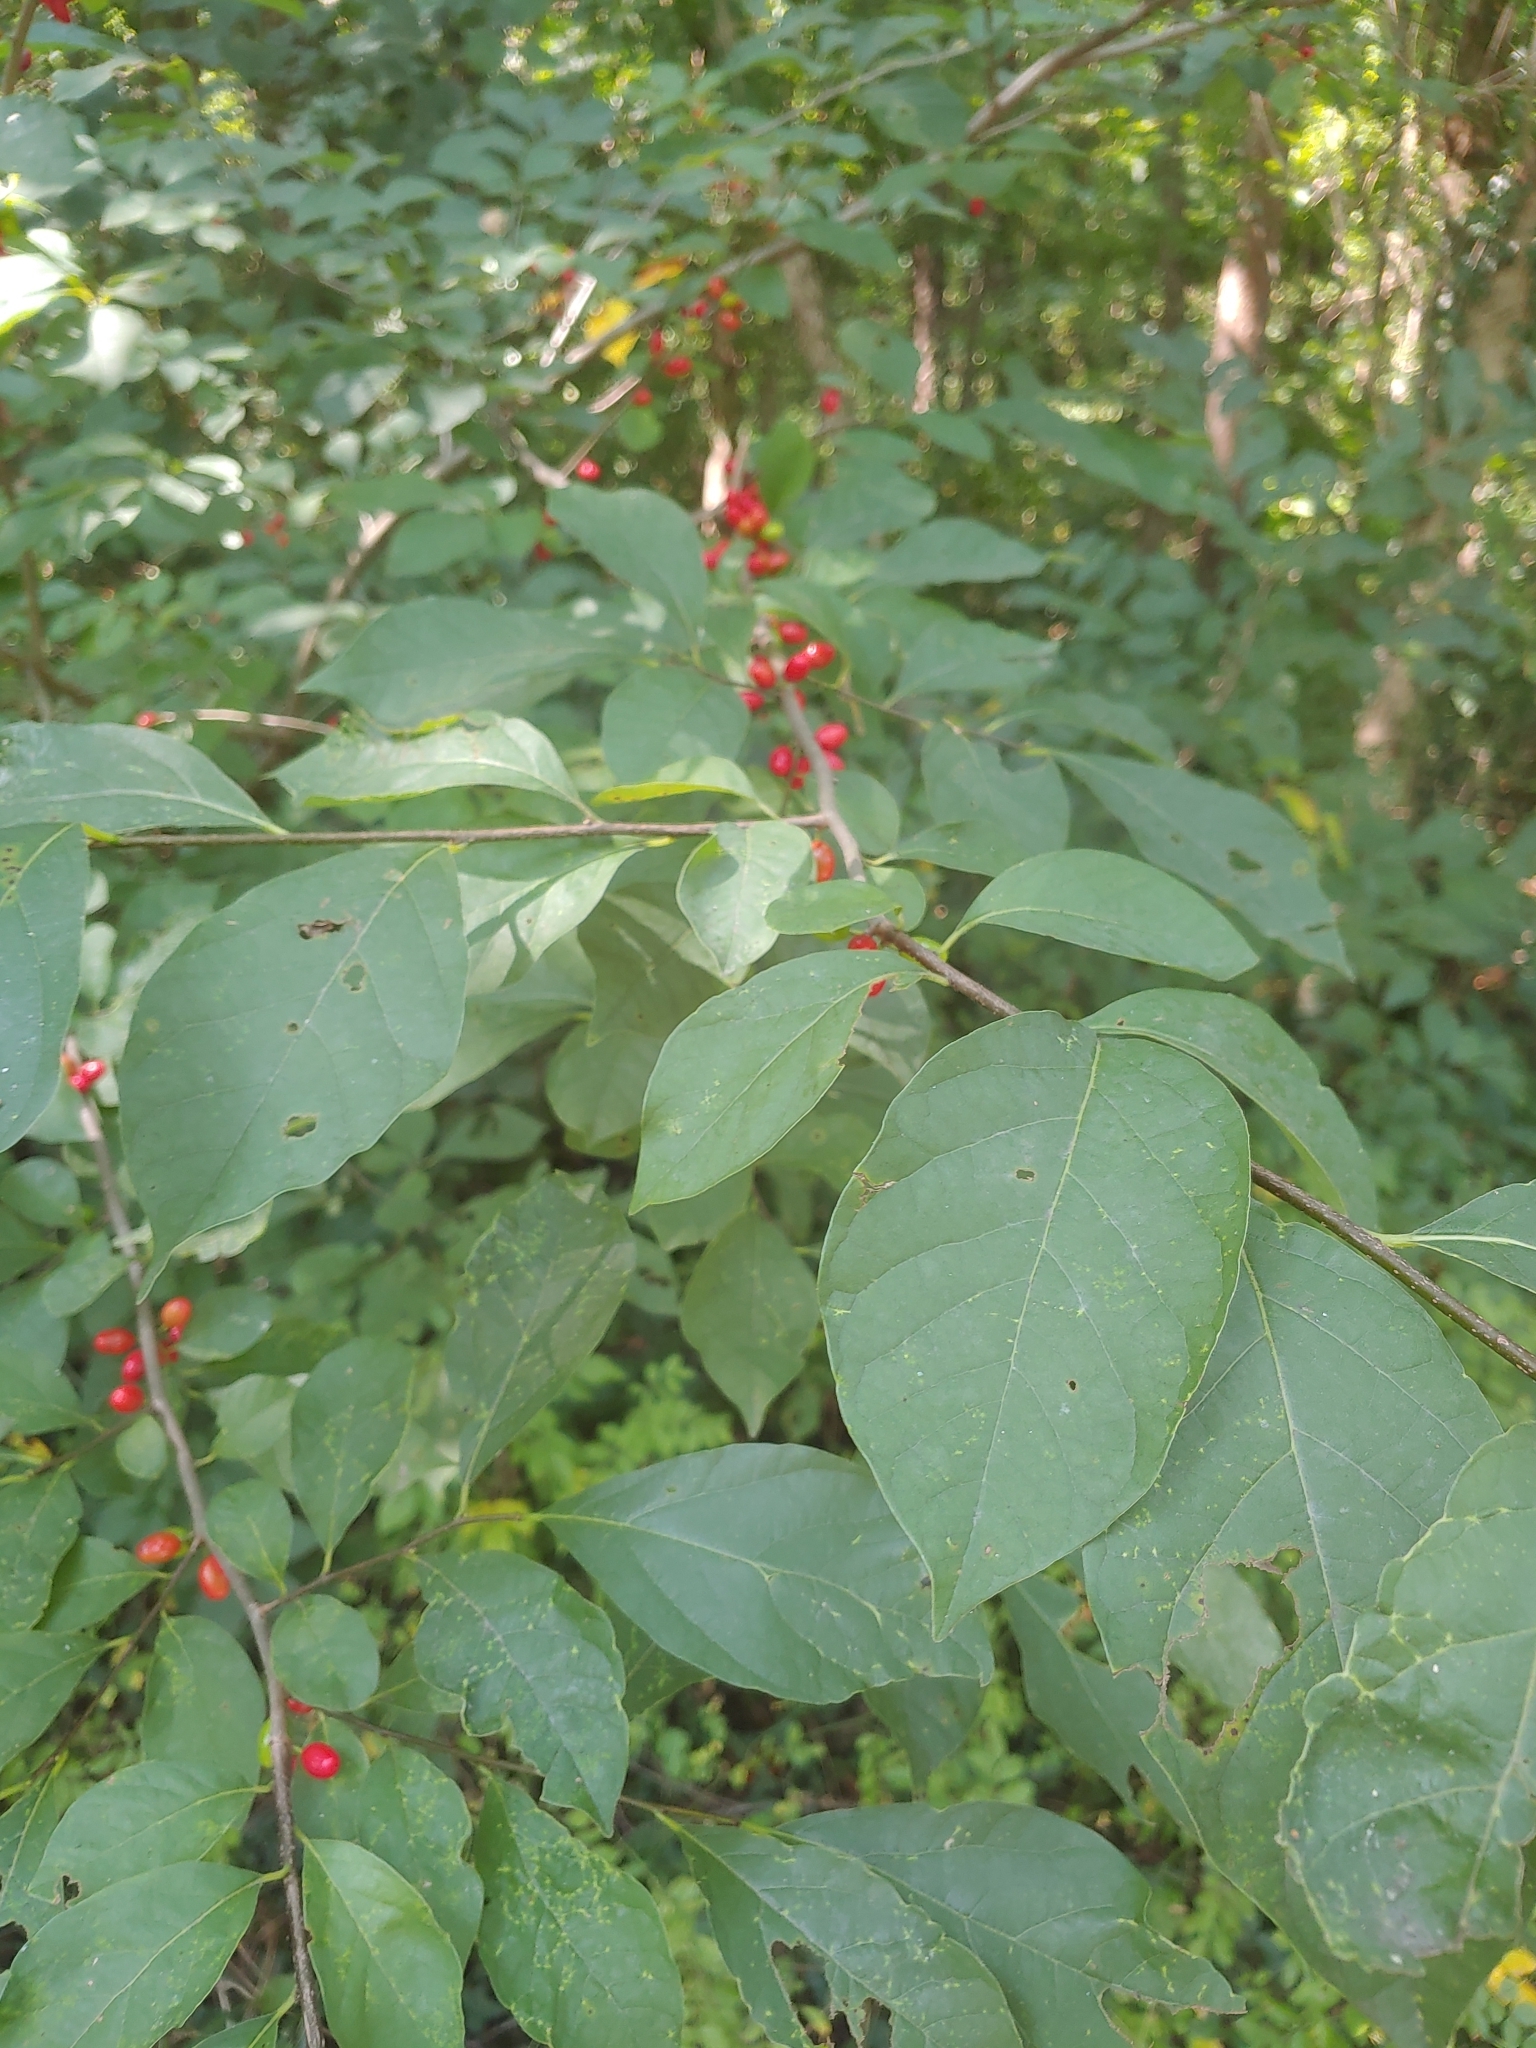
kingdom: Plantae
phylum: Tracheophyta
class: Magnoliopsida
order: Laurales
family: Lauraceae
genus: Lindera
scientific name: Lindera benzoin
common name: Spicebush
